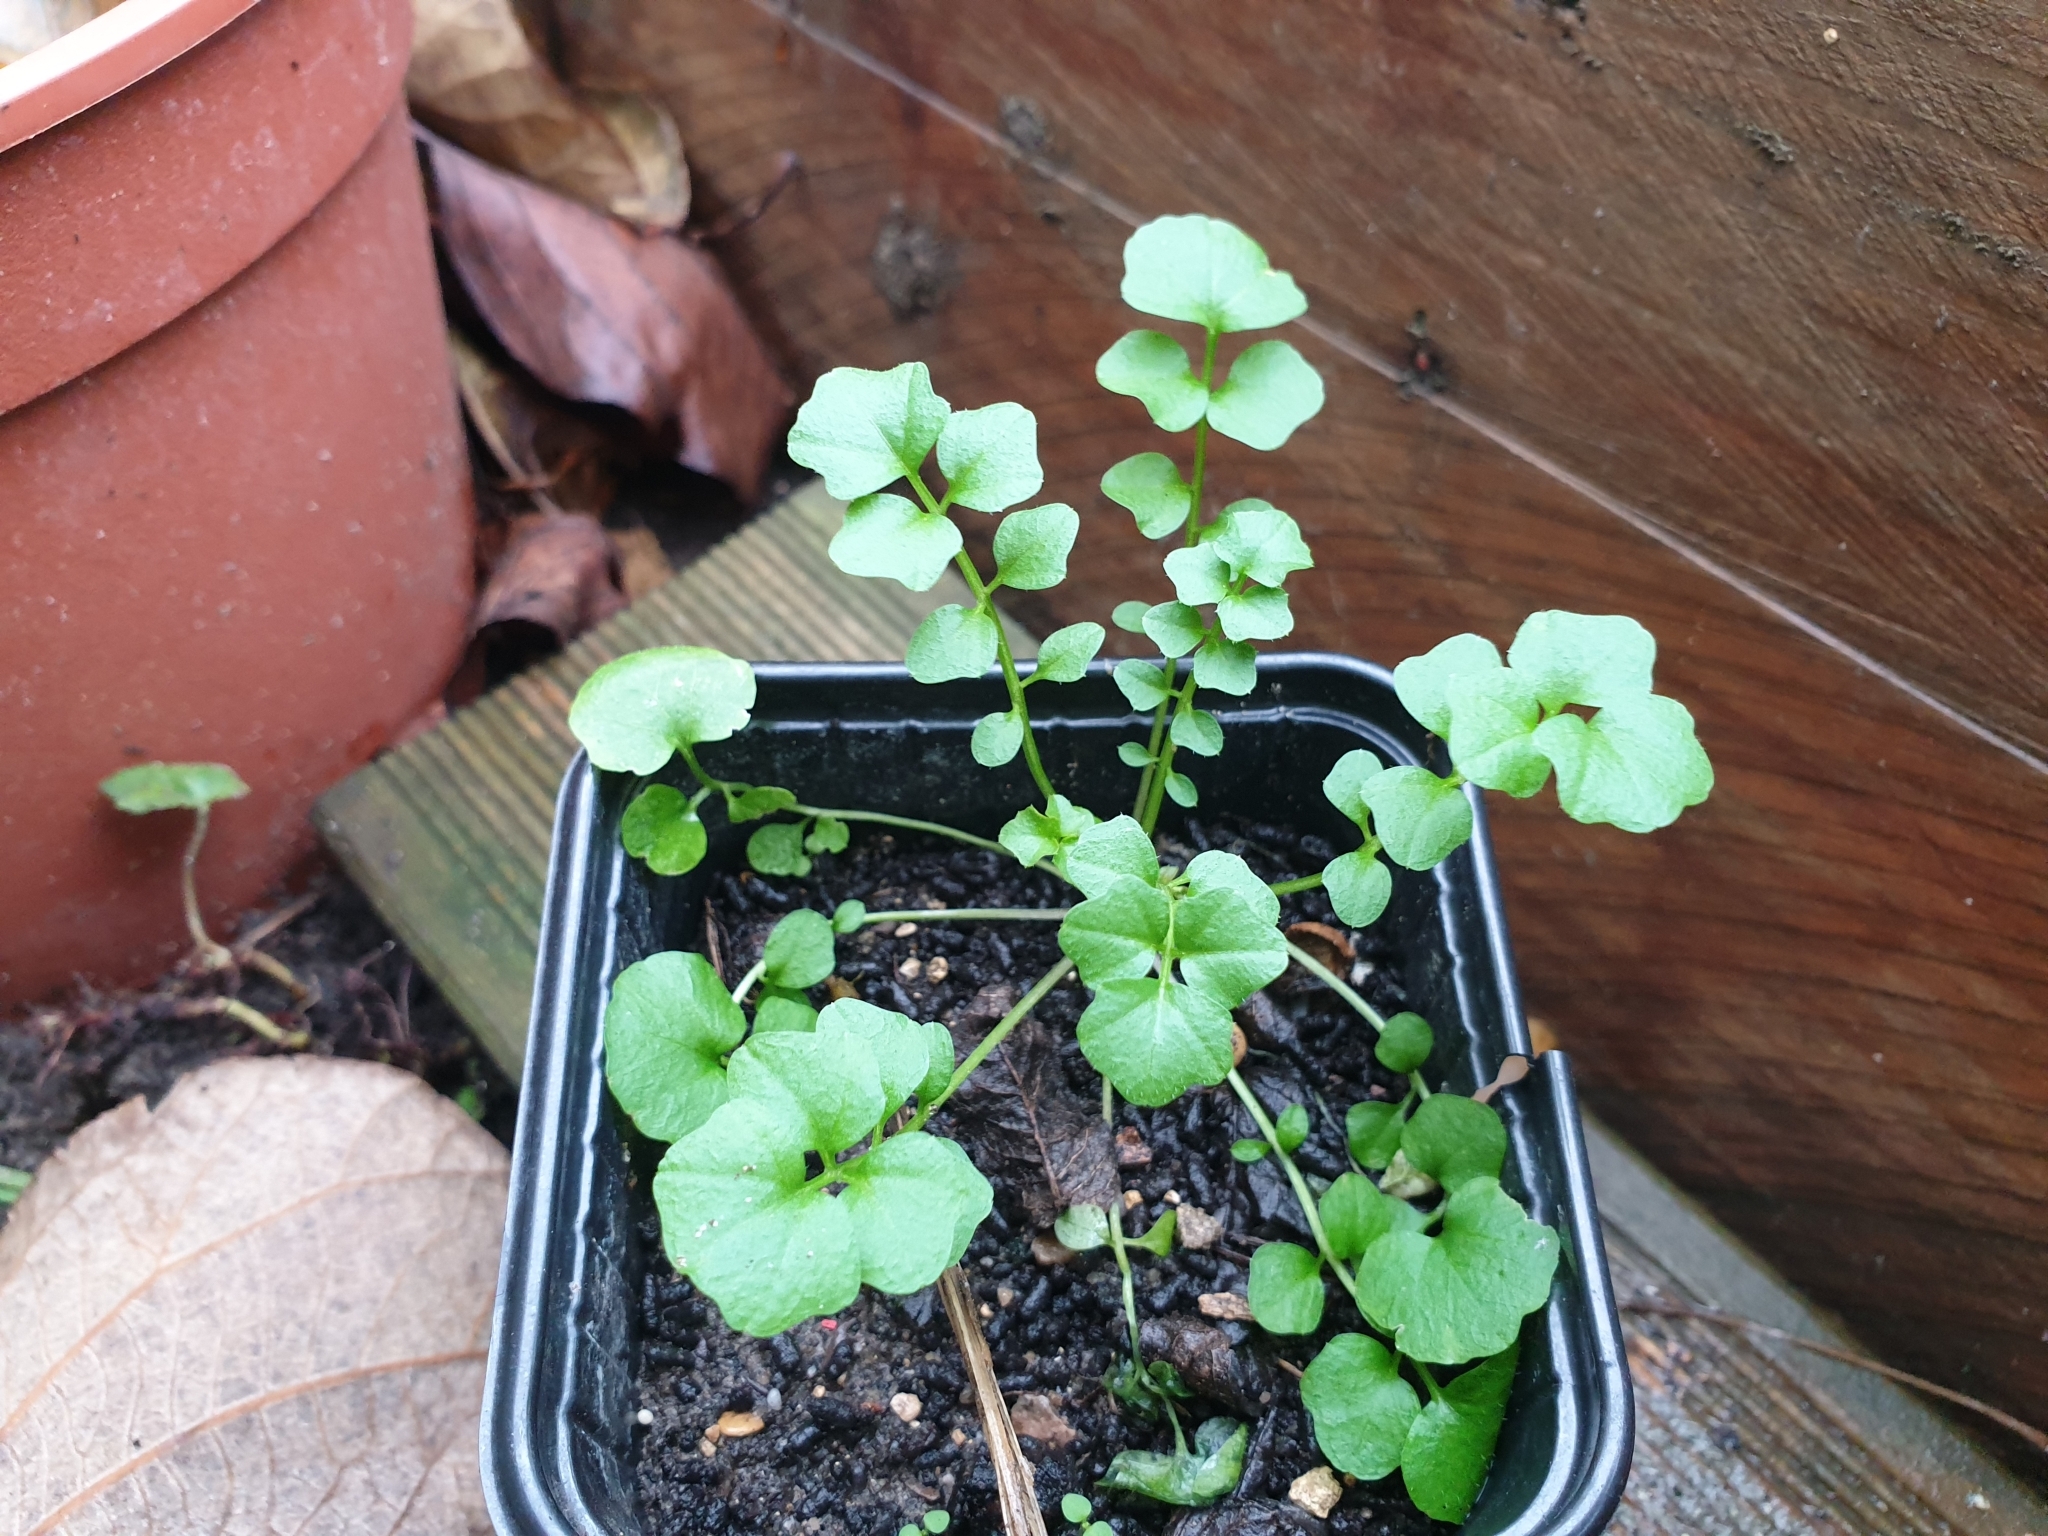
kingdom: Plantae
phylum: Tracheophyta
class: Magnoliopsida
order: Brassicales
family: Brassicaceae
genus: Cardamine
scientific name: Cardamine hirsuta
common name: Hairy bittercress
